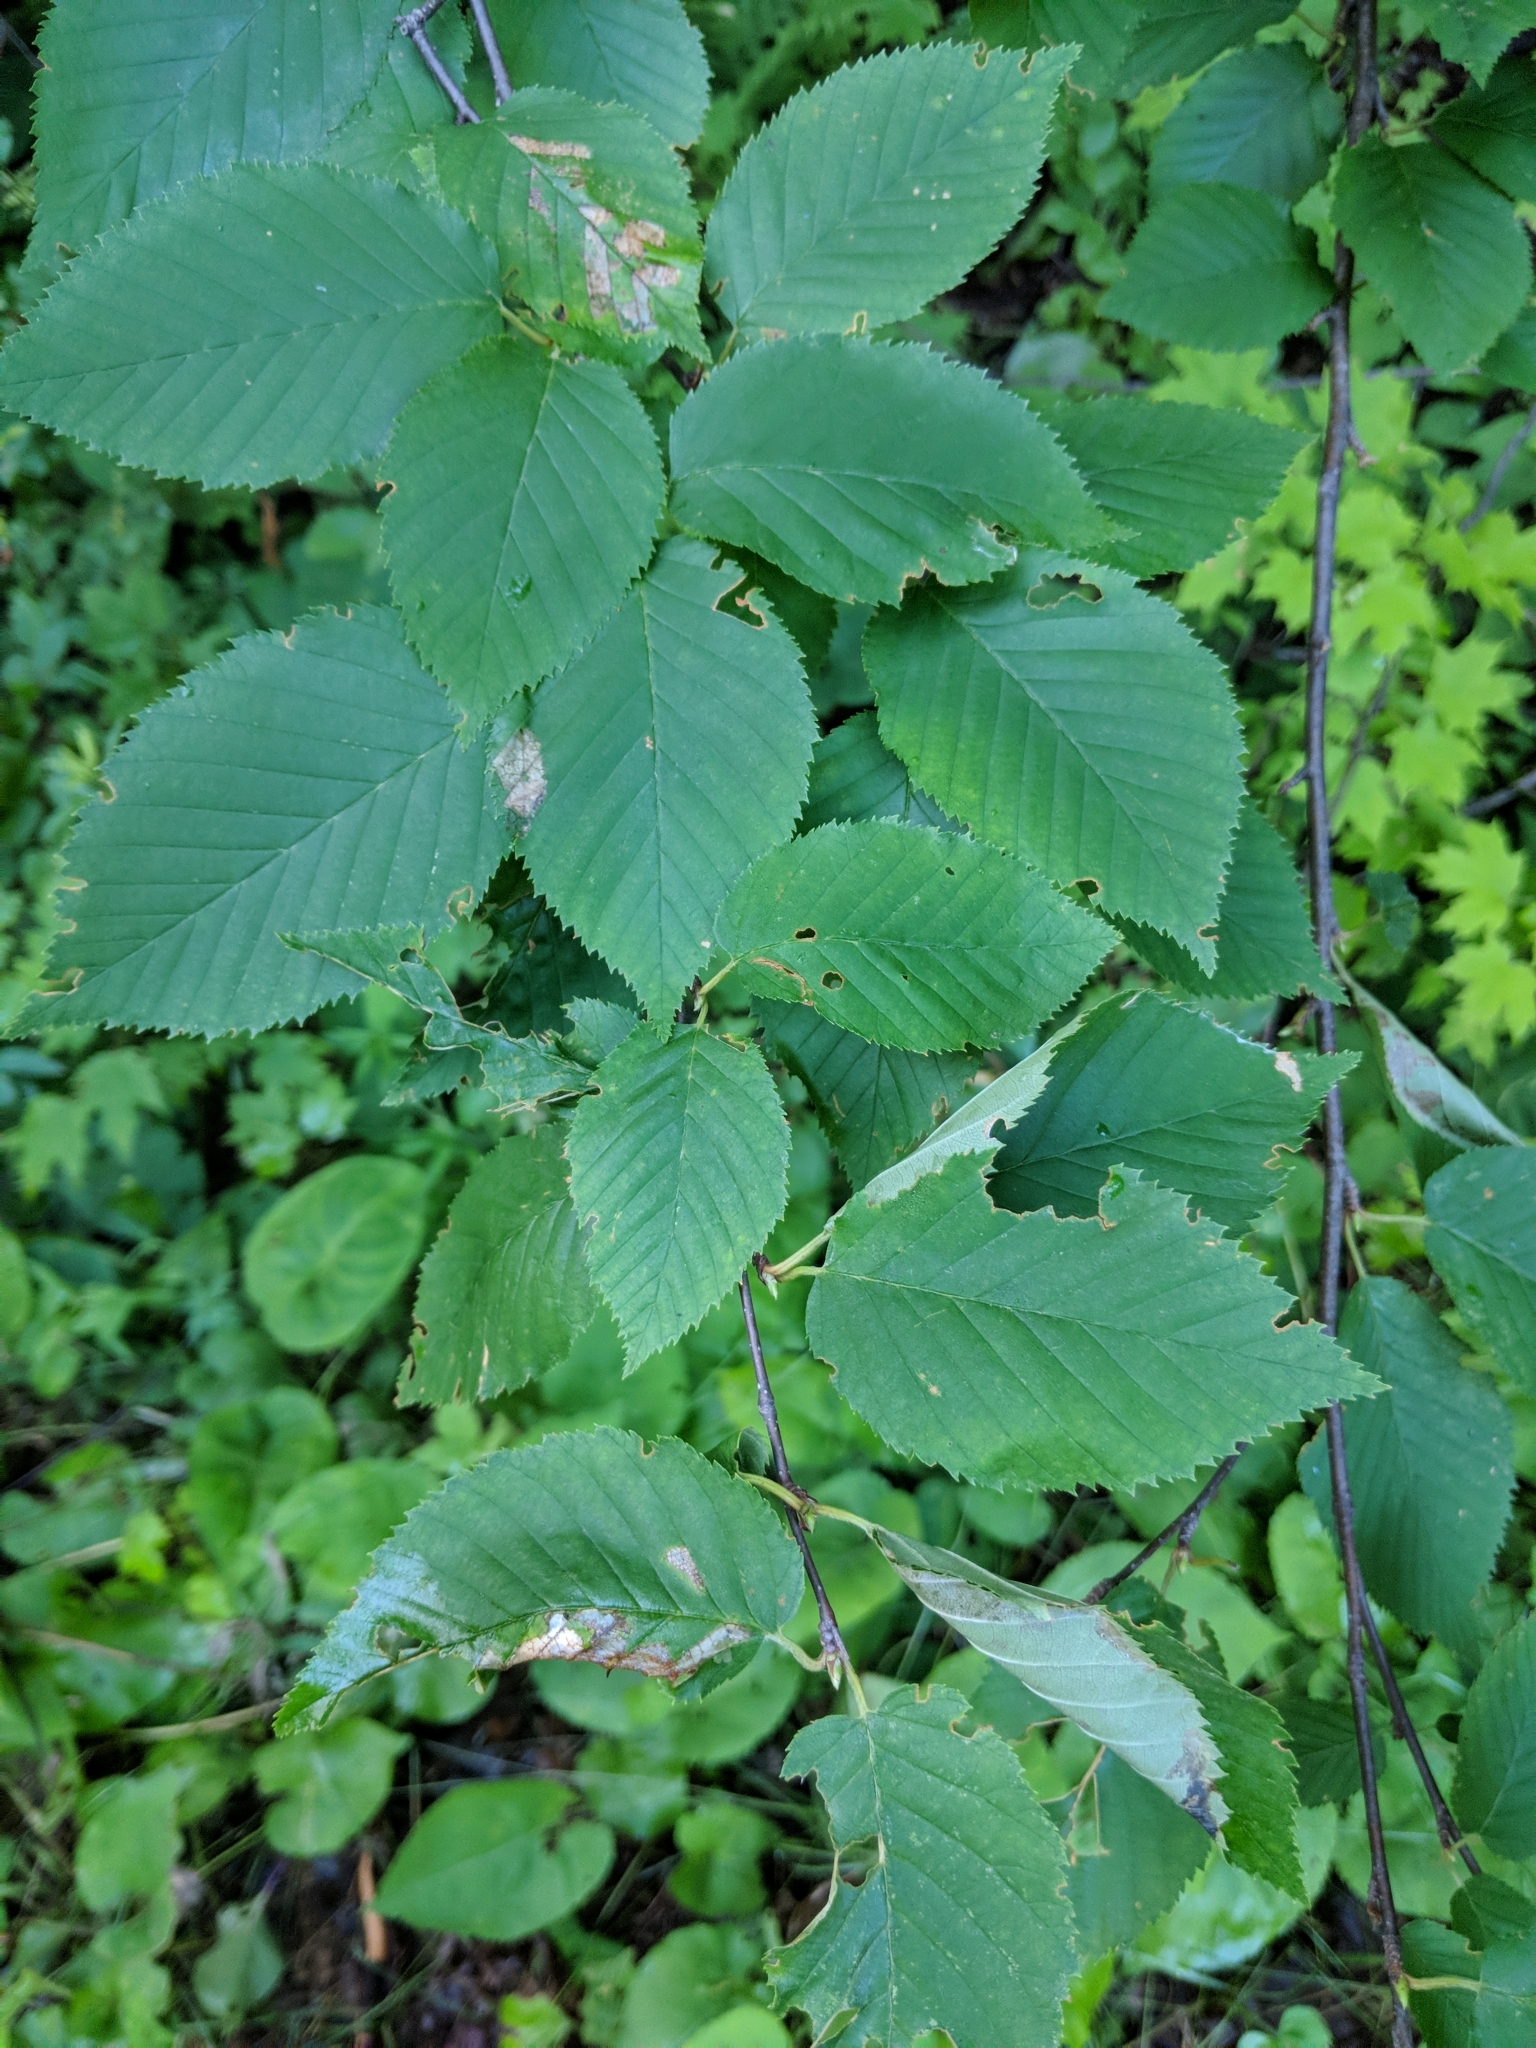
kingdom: Plantae
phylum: Tracheophyta
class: Magnoliopsida
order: Fagales
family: Betulaceae
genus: Betula
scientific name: Betula papyrifera
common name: Paper birch
